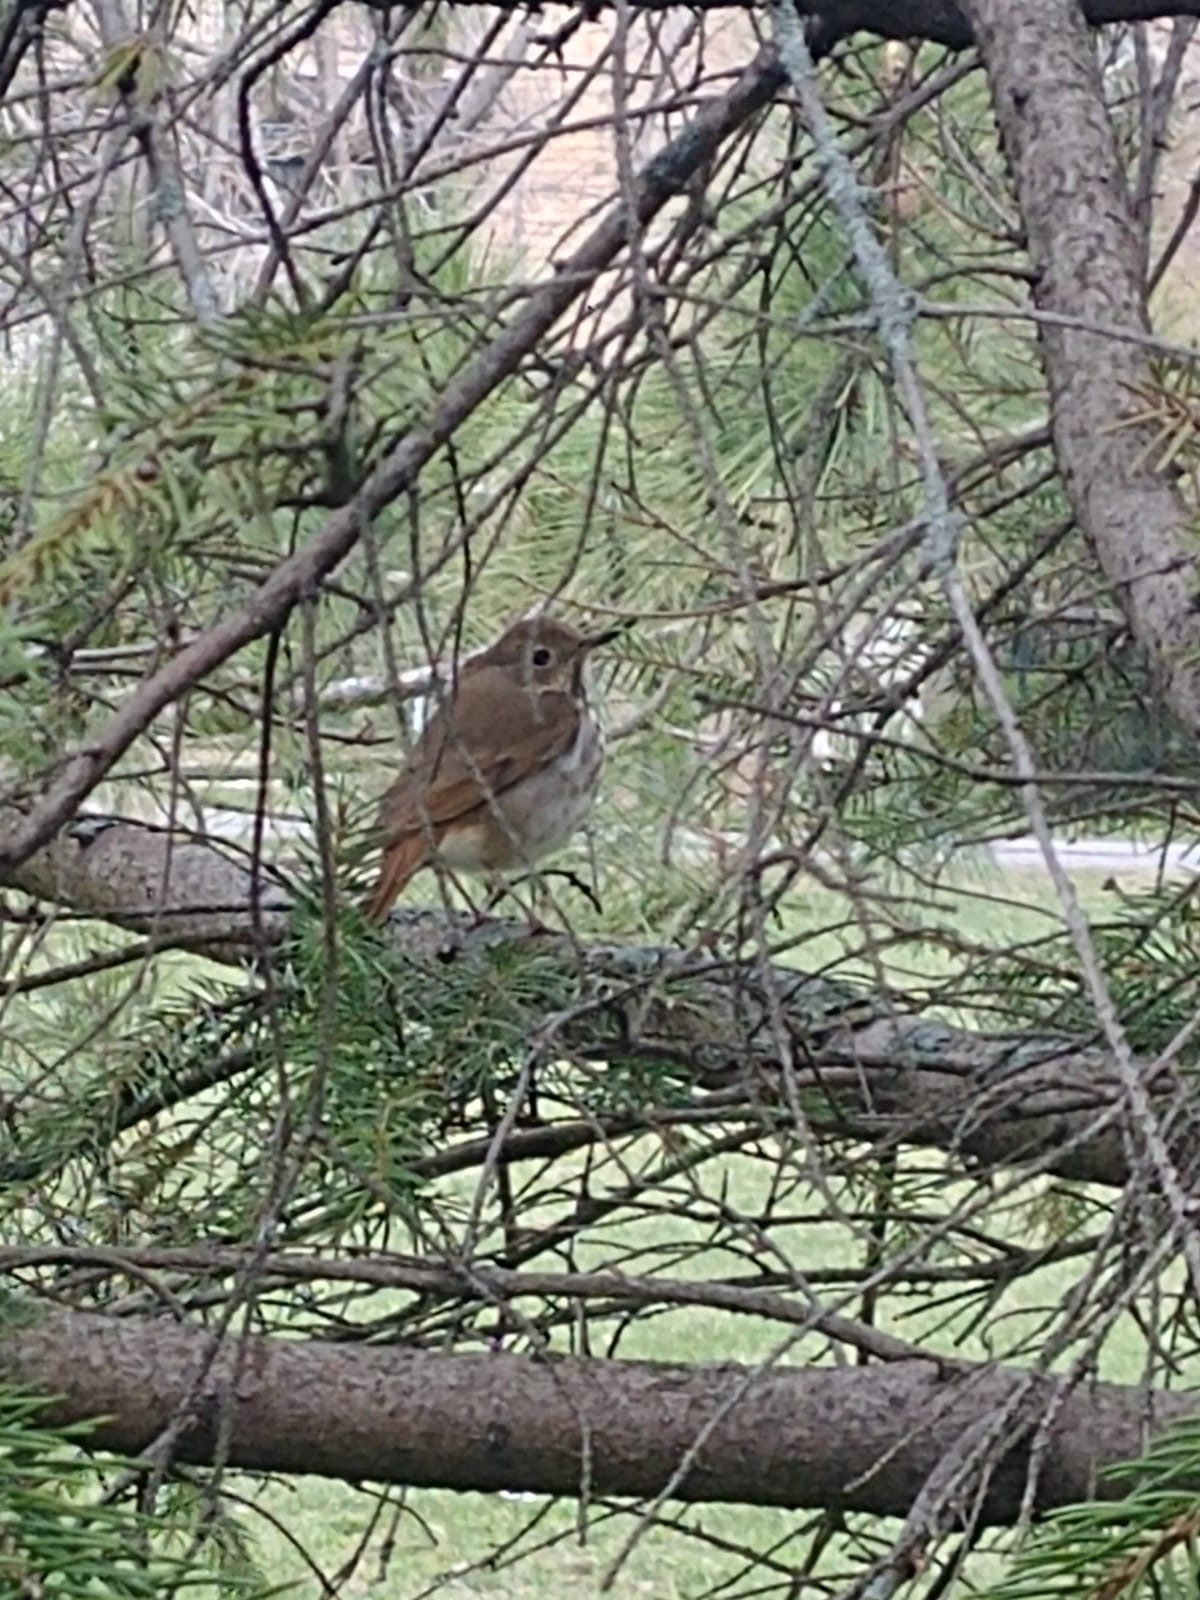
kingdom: Animalia
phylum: Chordata
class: Aves
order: Passeriformes
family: Turdidae
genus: Catharus
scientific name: Catharus guttatus
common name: Hermit thrush
